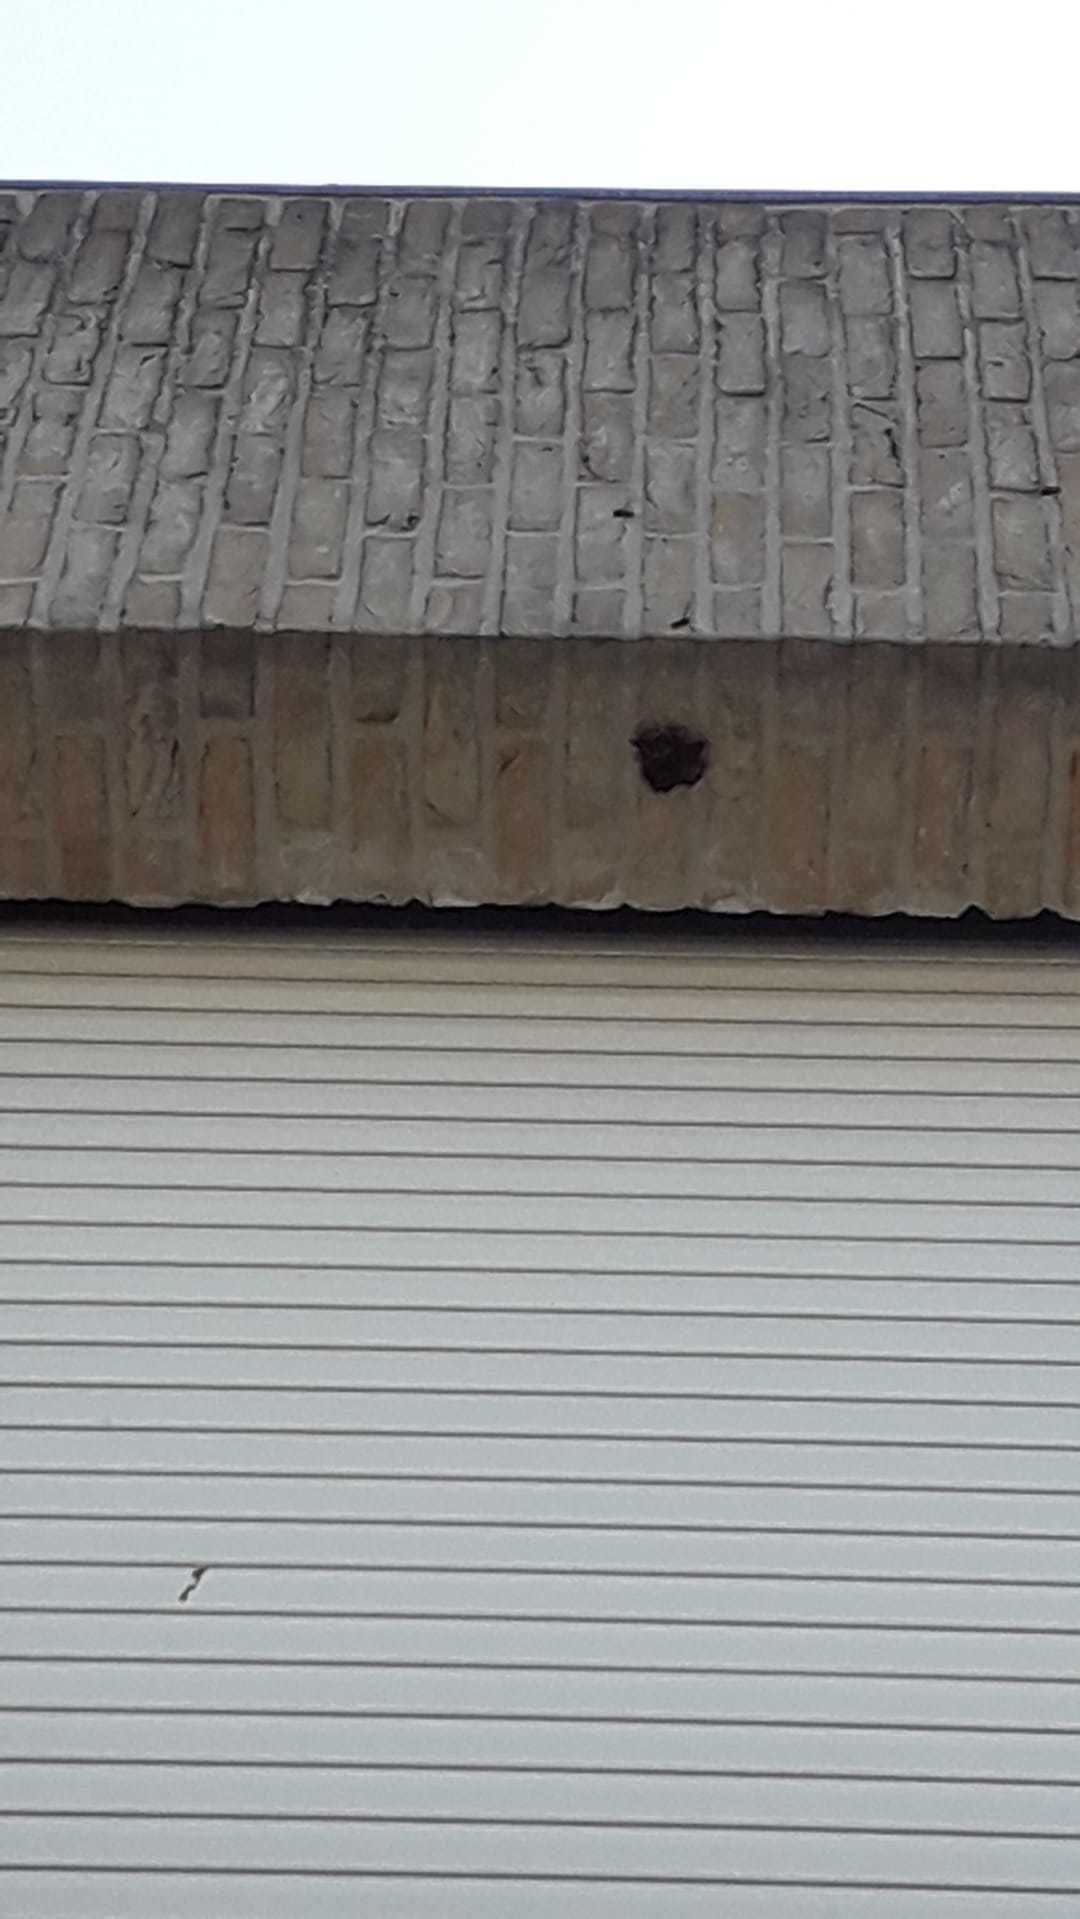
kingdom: Animalia
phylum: Arthropoda
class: Insecta
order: Hymenoptera
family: Vespidae
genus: Vespa
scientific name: Vespa velutina
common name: Asian hornet
